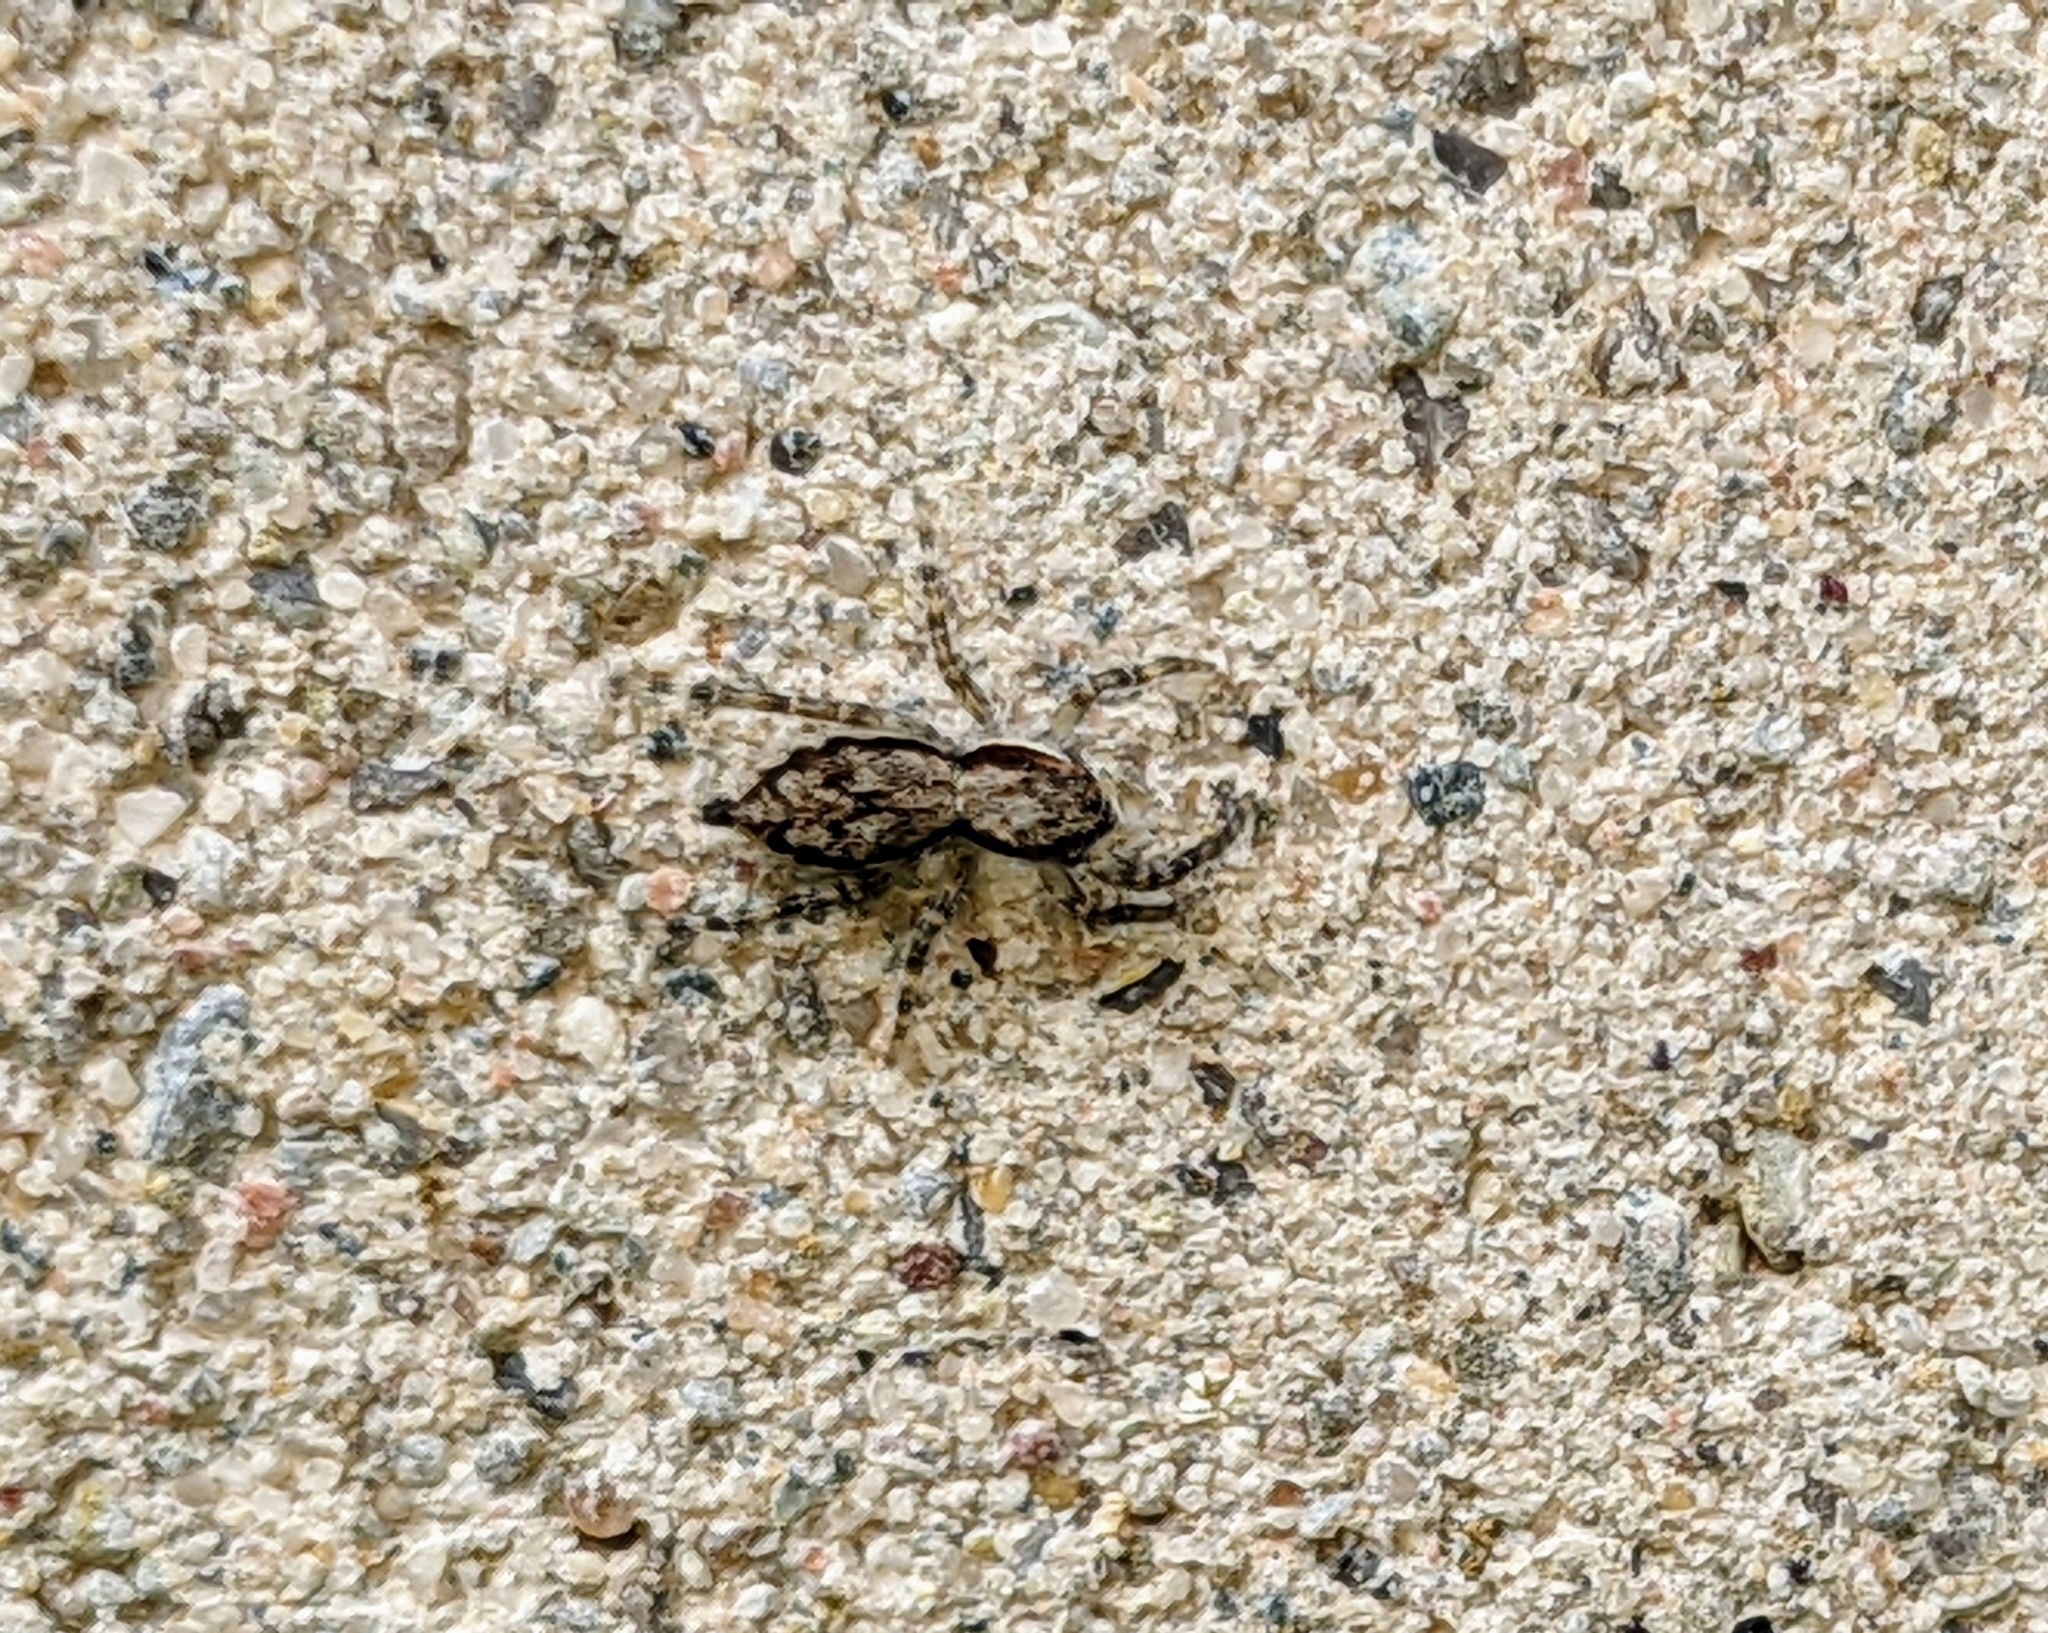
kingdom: Animalia
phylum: Arthropoda
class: Arachnida
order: Araneae
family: Salticidae
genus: Menemerus
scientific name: Menemerus bivittatus
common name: Gray wall jumper
